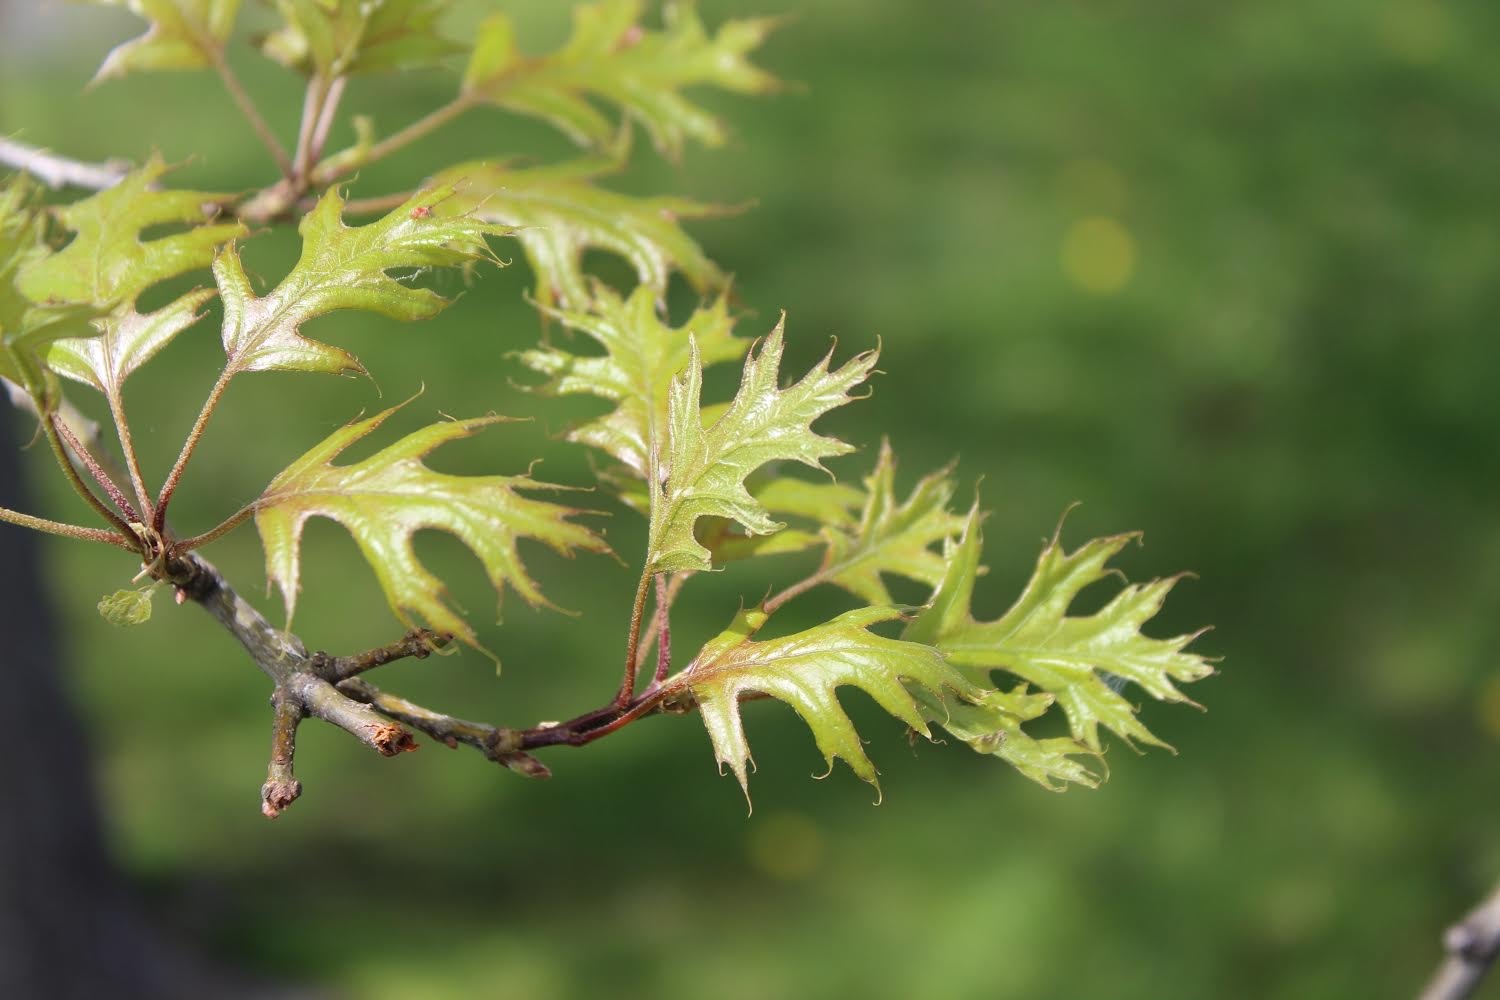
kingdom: Plantae
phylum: Tracheophyta
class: Magnoliopsida
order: Fagales
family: Fagaceae
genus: Quercus
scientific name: Quercus palustris
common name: Pin oak
